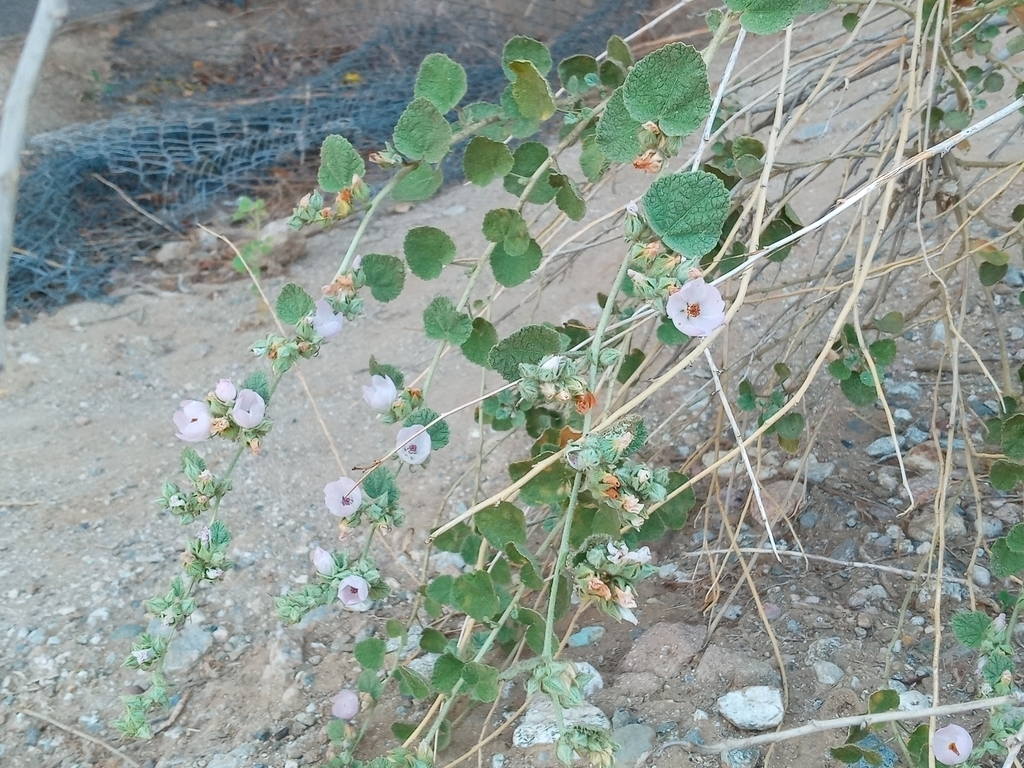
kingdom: Plantae
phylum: Tracheophyta
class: Magnoliopsida
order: Malvales
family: Malvaceae
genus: Malacothamnus
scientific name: Malacothamnus marrubioides
